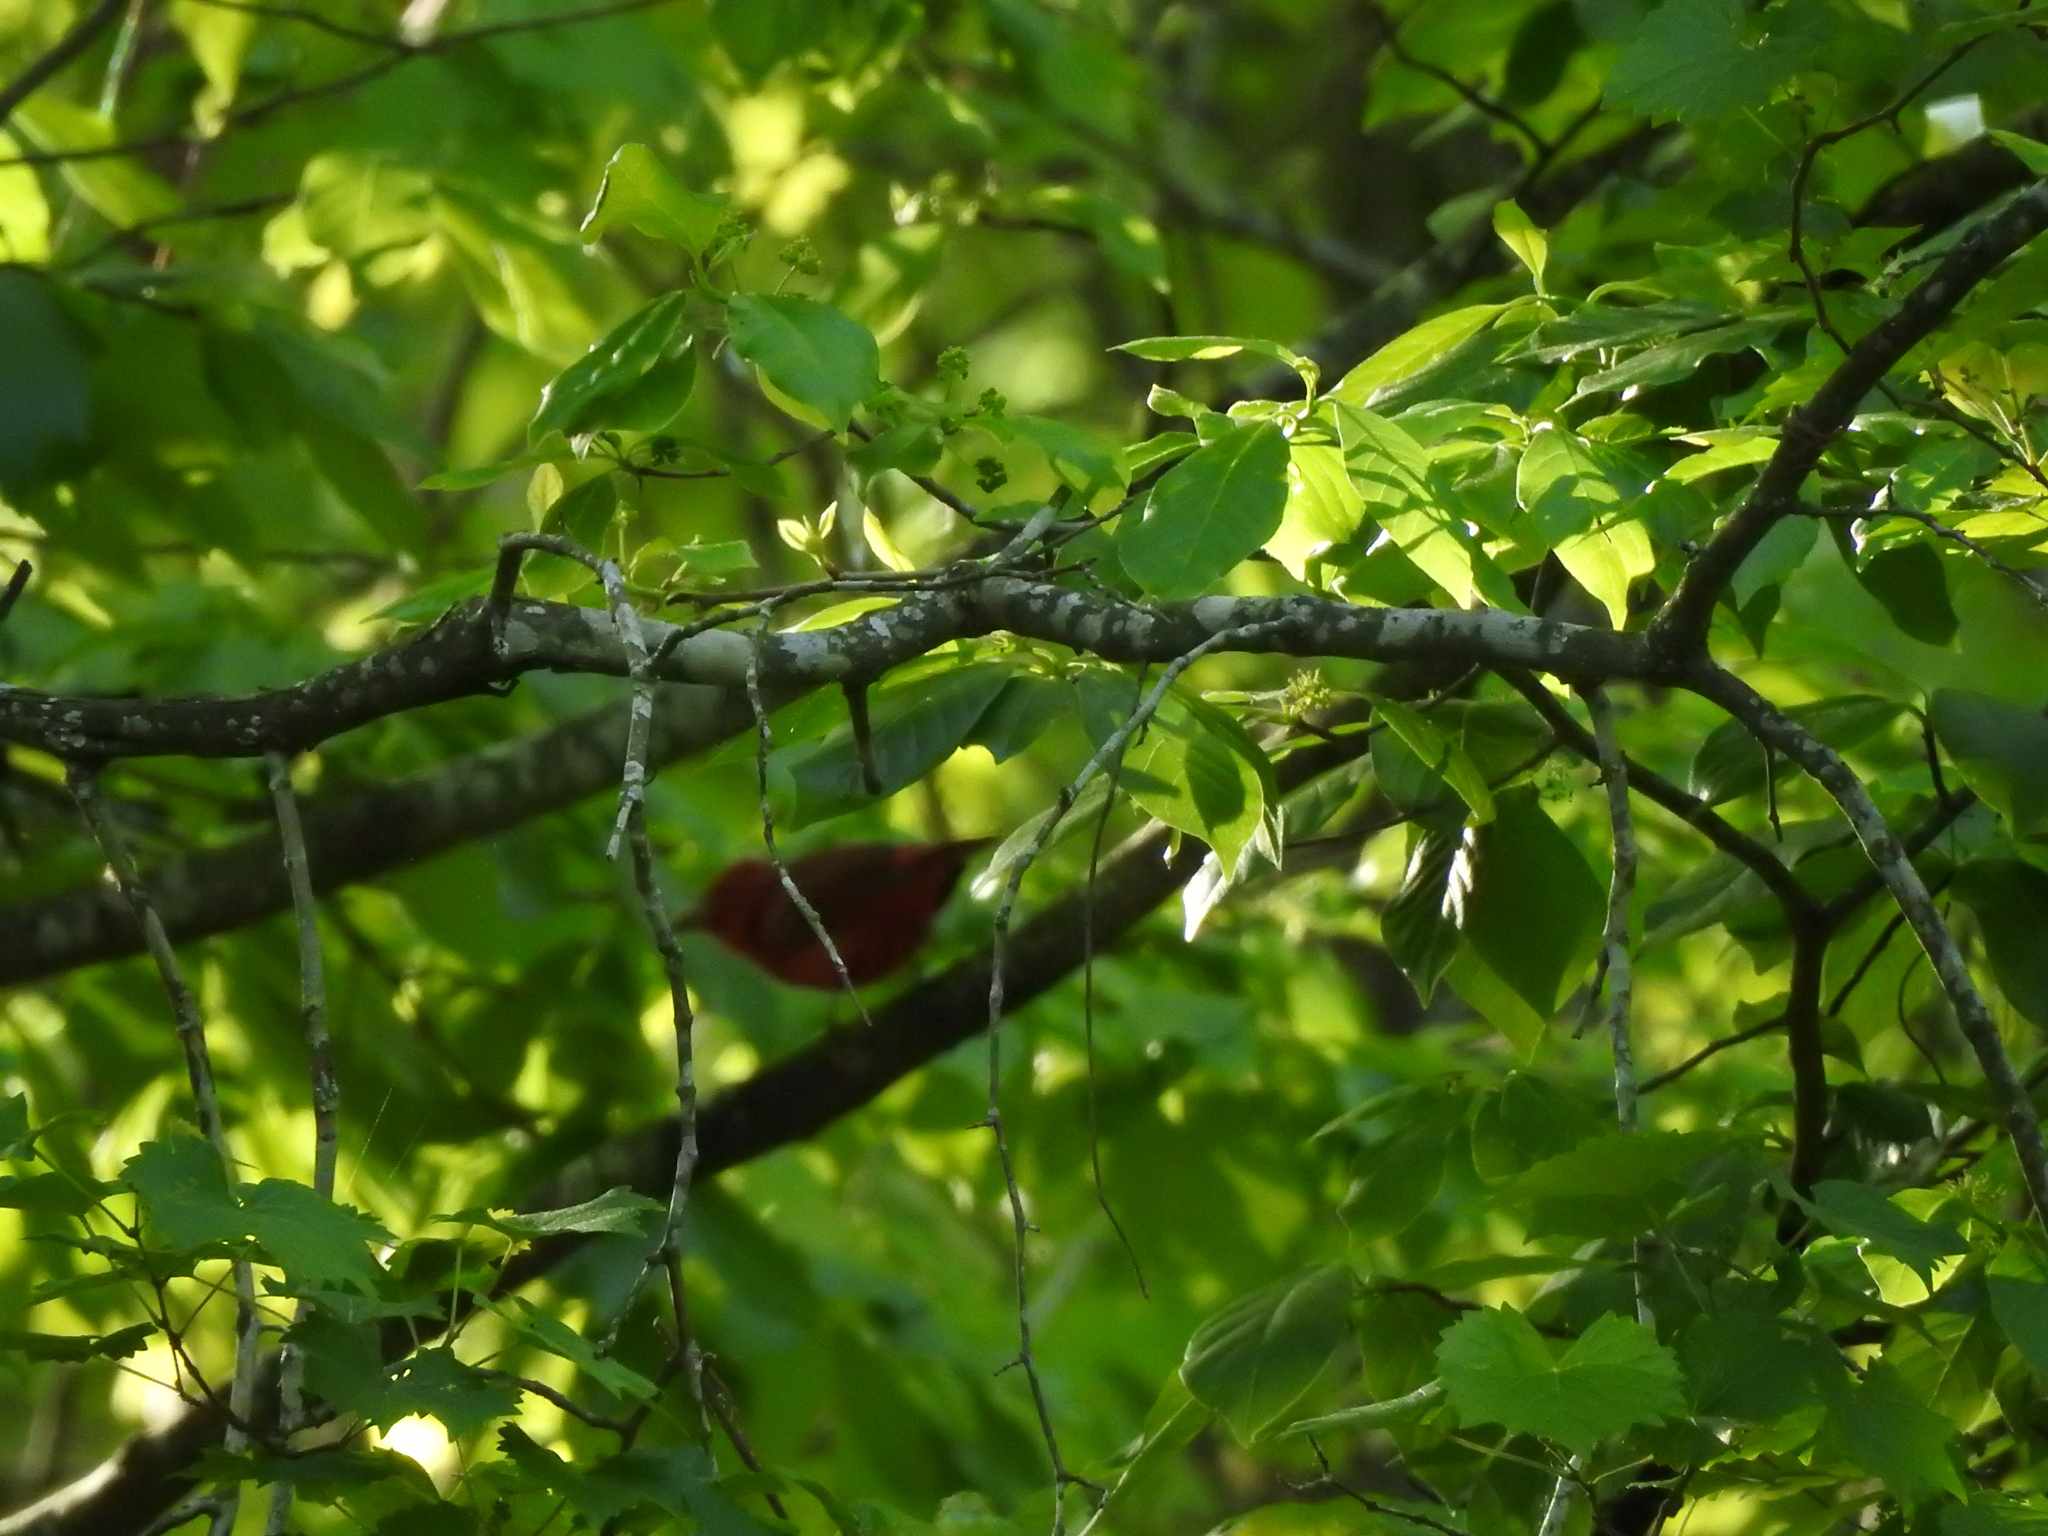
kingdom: Animalia
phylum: Chordata
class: Aves
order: Passeriformes
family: Cardinalidae
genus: Piranga
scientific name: Piranga rubra
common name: Summer tanager
